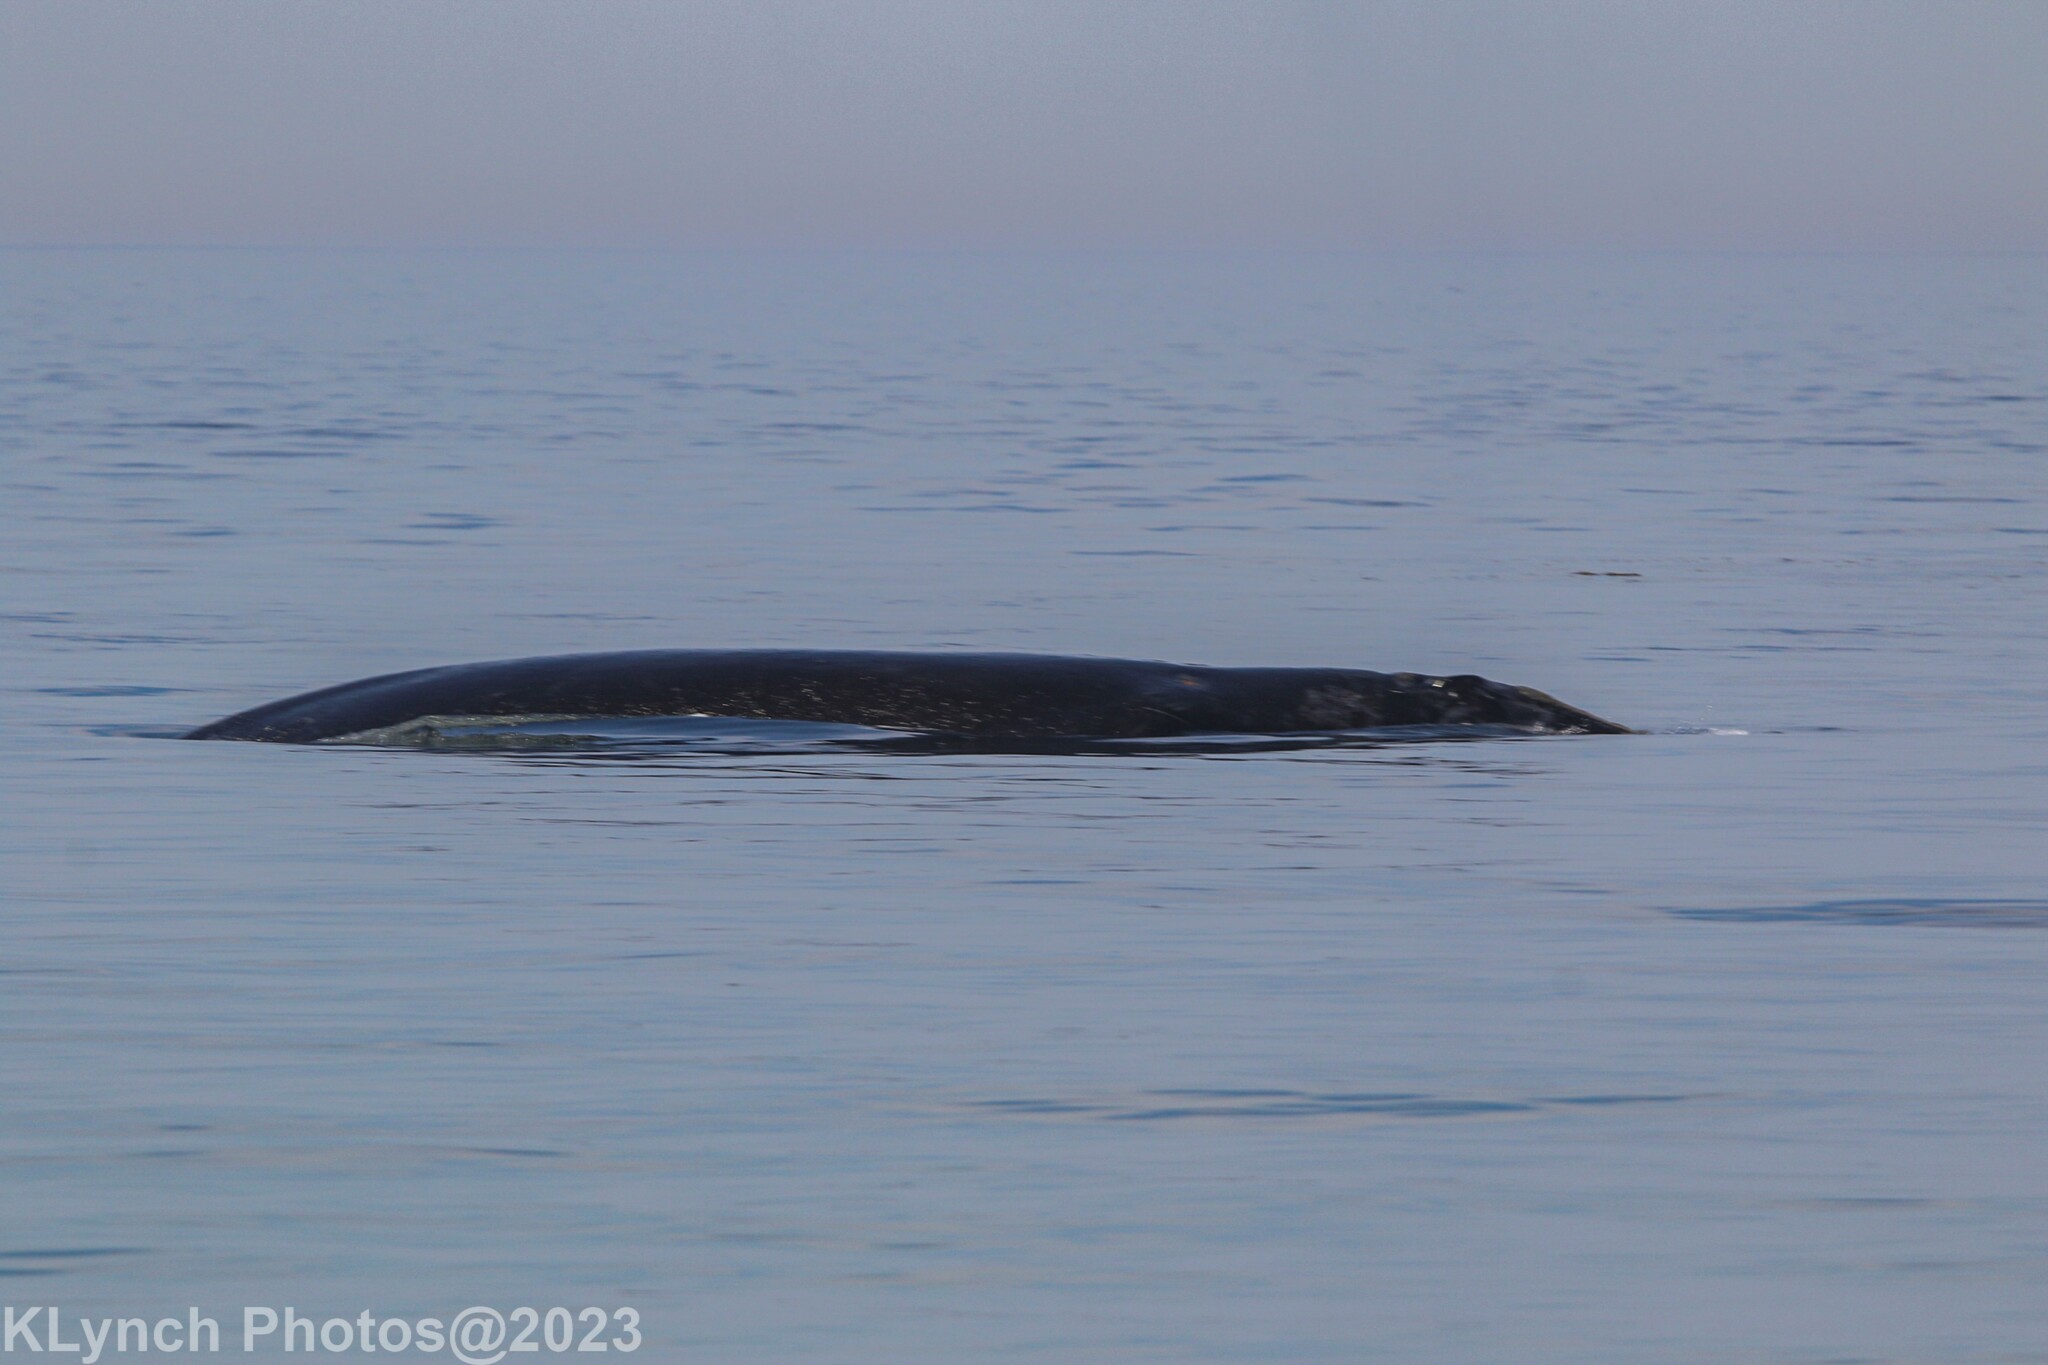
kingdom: Animalia
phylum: Chordata
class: Mammalia
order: Cetacea
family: Balaenidae
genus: Eubalaena
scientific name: Eubalaena glacialis
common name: North atlantic right whale
